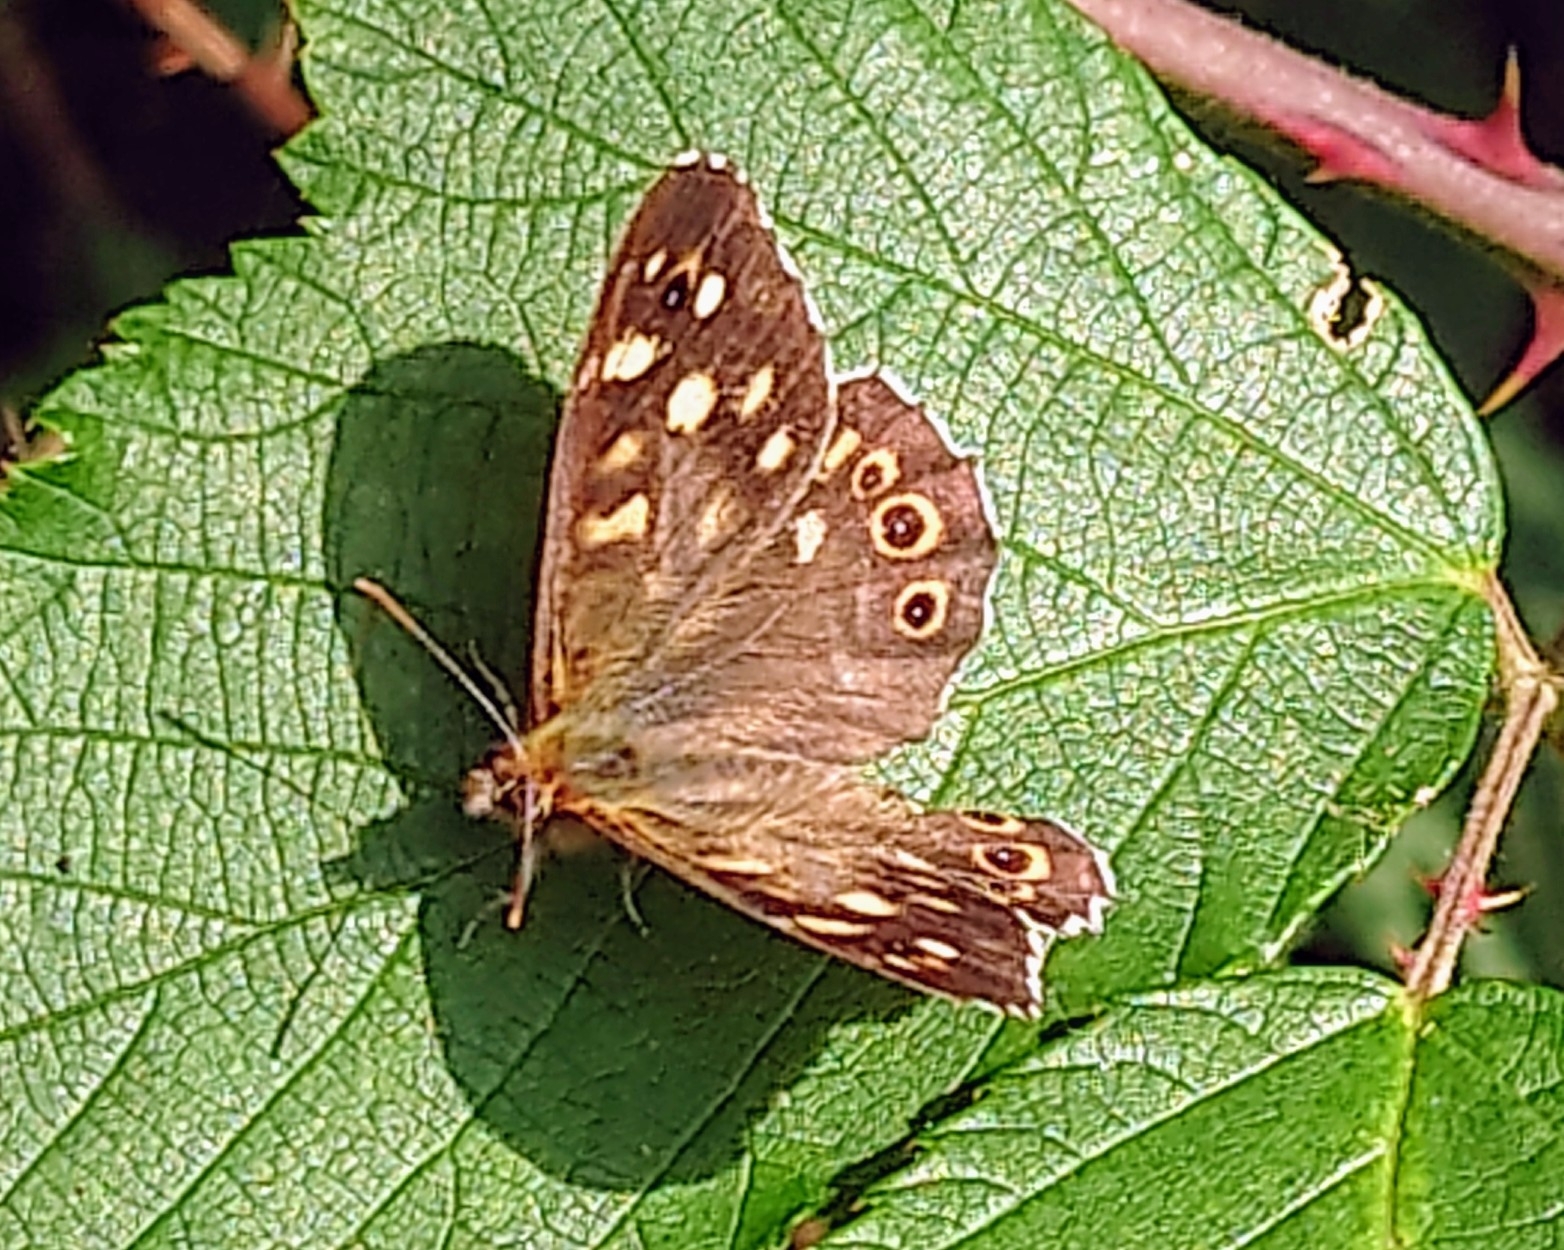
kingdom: Animalia
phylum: Arthropoda
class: Insecta
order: Lepidoptera
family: Nymphalidae
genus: Pararge
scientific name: Pararge aegeria
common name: Speckled wood
